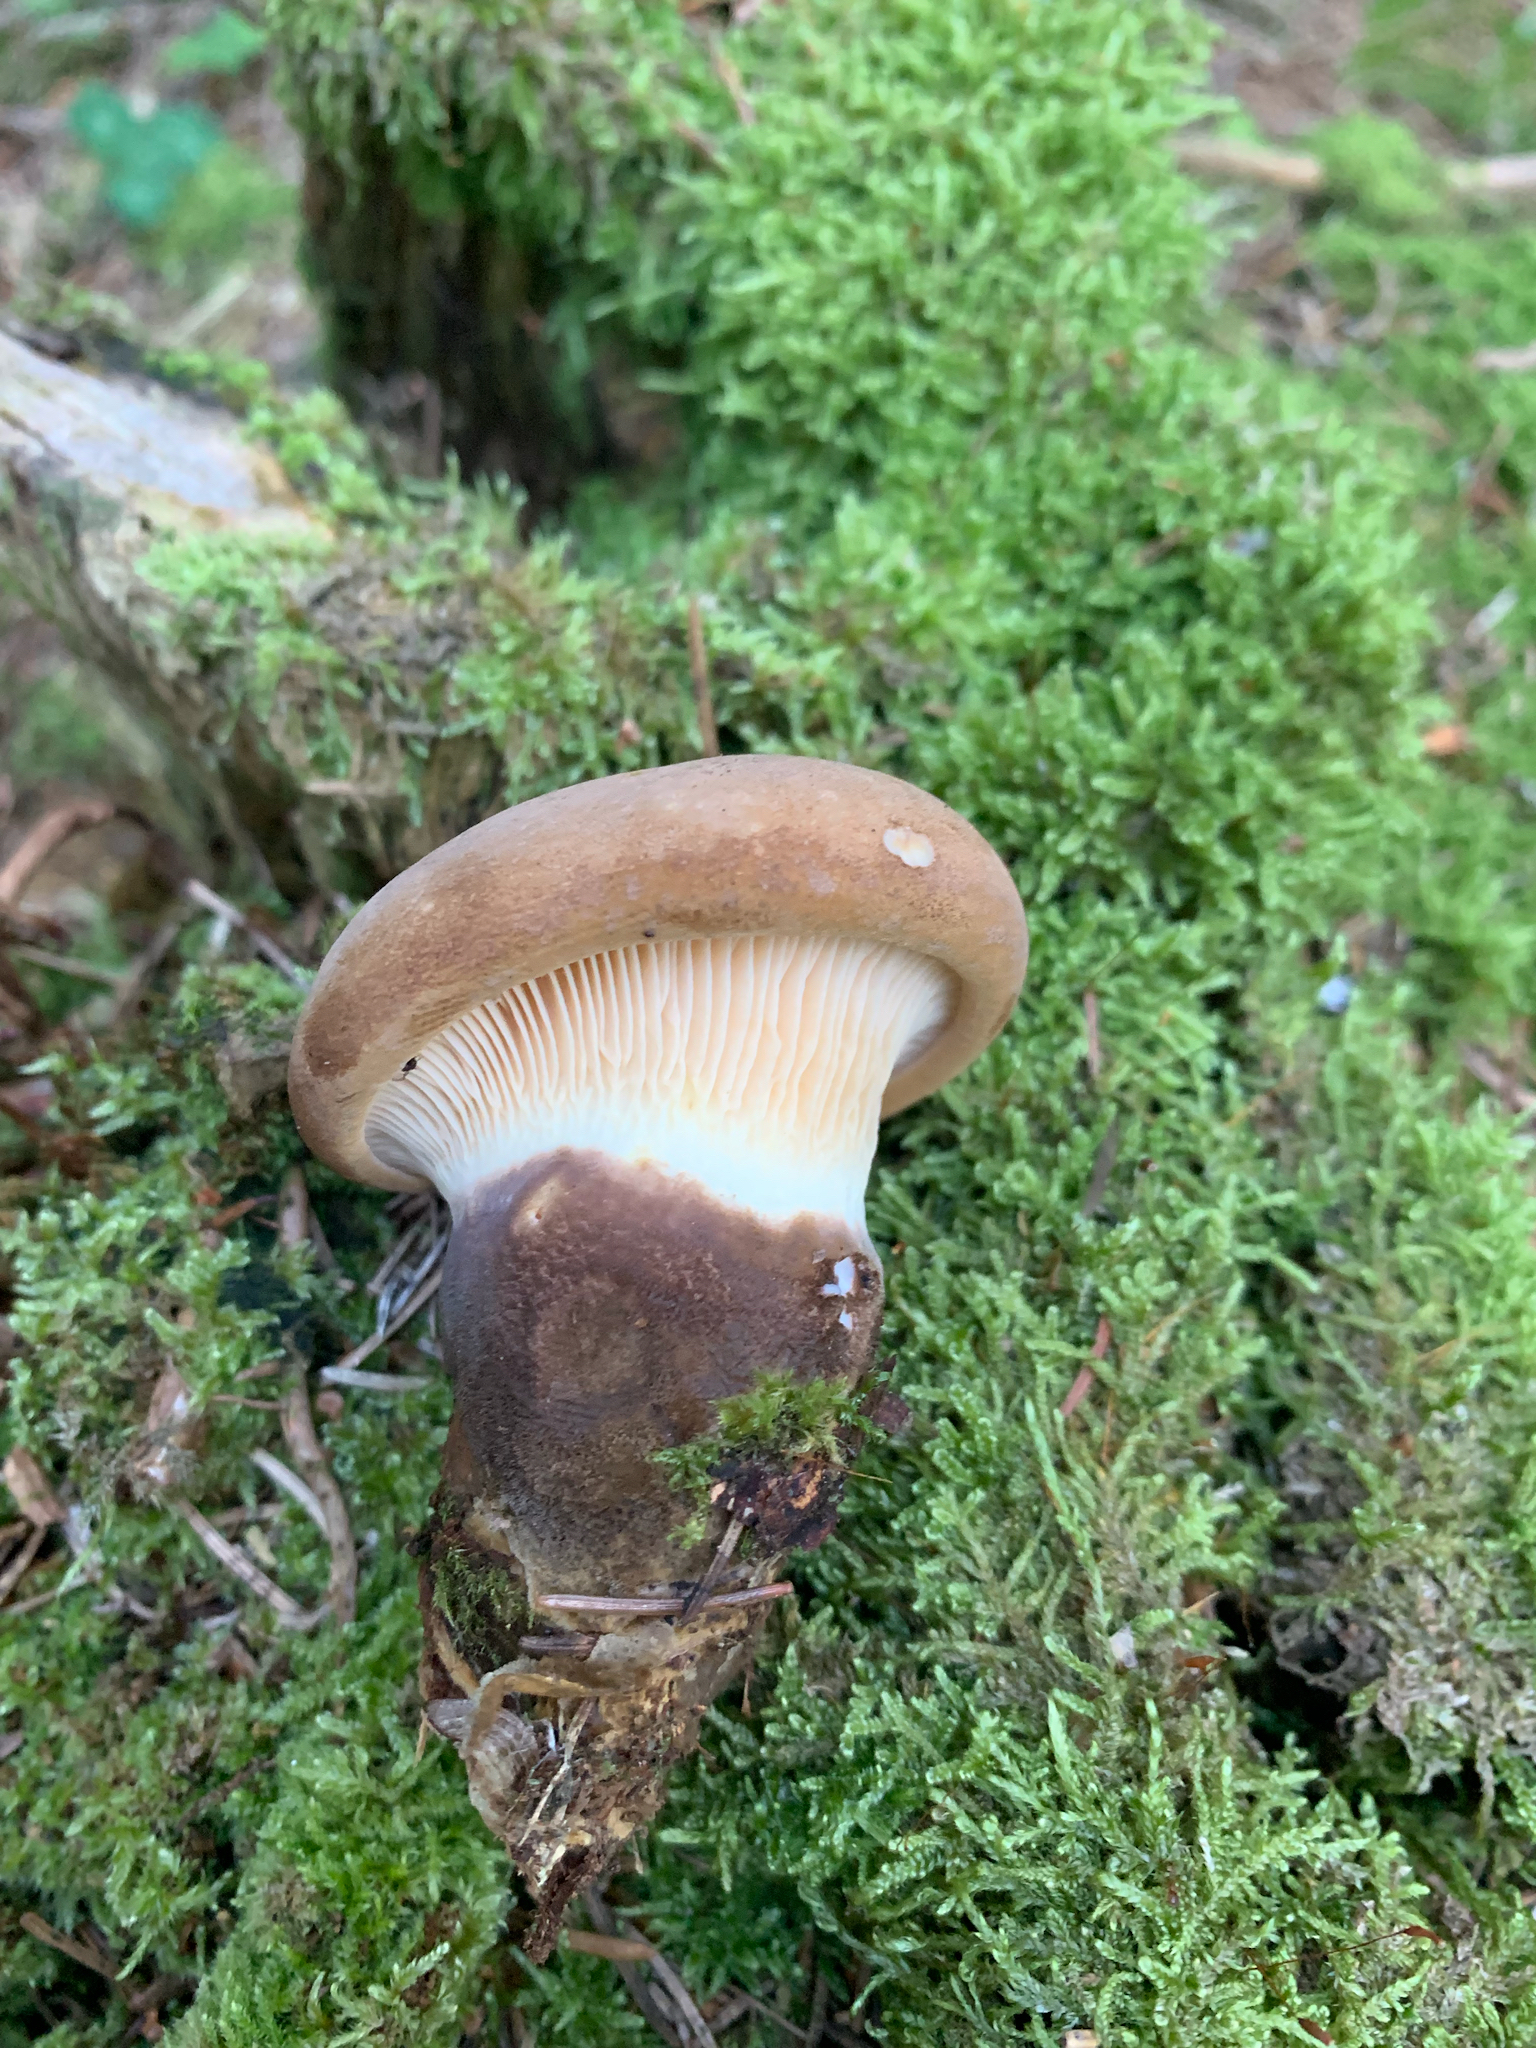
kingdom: Fungi
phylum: Basidiomycota
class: Agaricomycetes
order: Boletales
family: Tapinellaceae
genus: Tapinella
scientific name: Tapinella atrotomentosa
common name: Velvet rollrim
